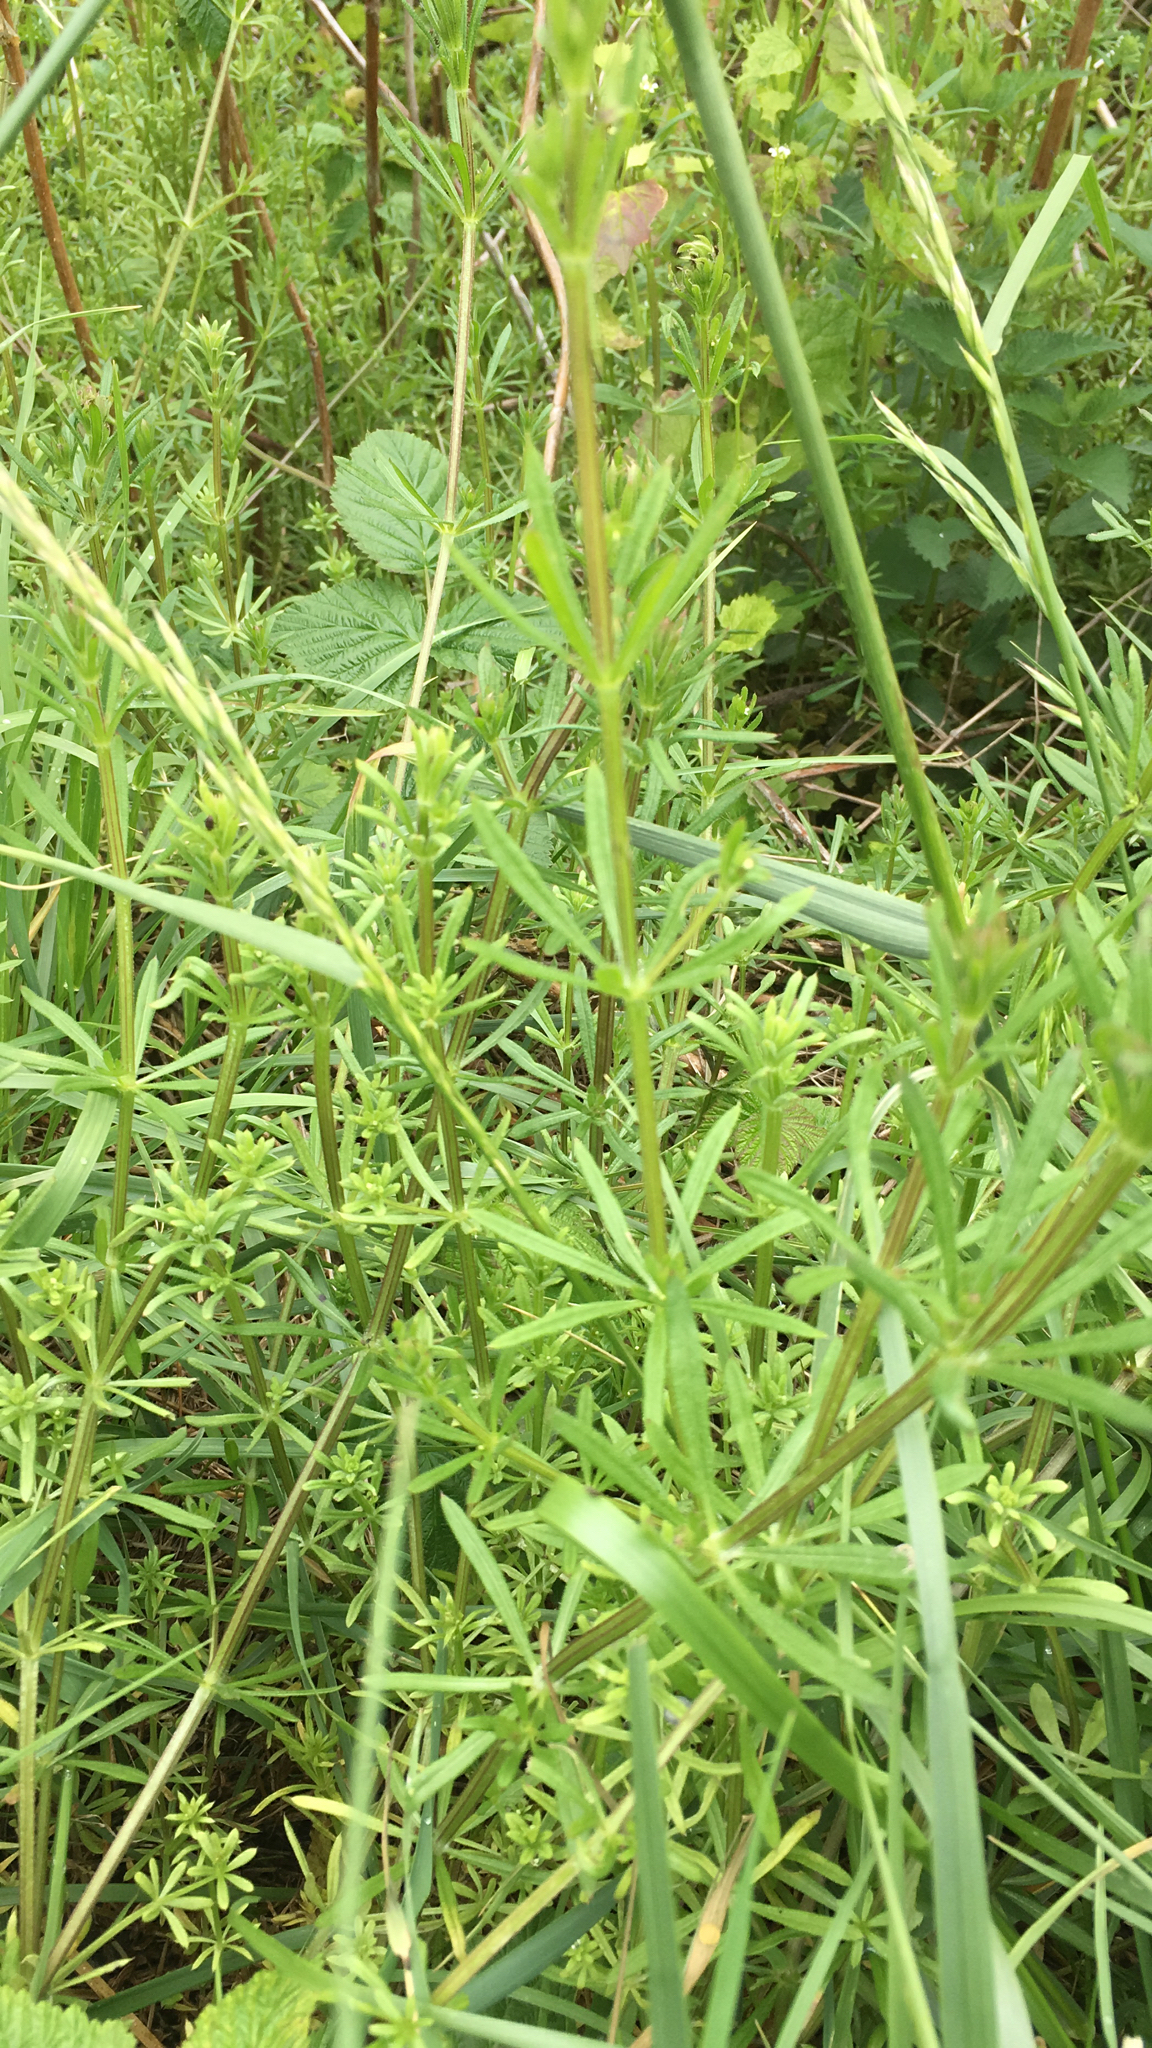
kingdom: Plantae
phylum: Tracheophyta
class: Magnoliopsida
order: Gentianales
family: Rubiaceae
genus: Galium
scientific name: Galium aparine
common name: Cleavers
